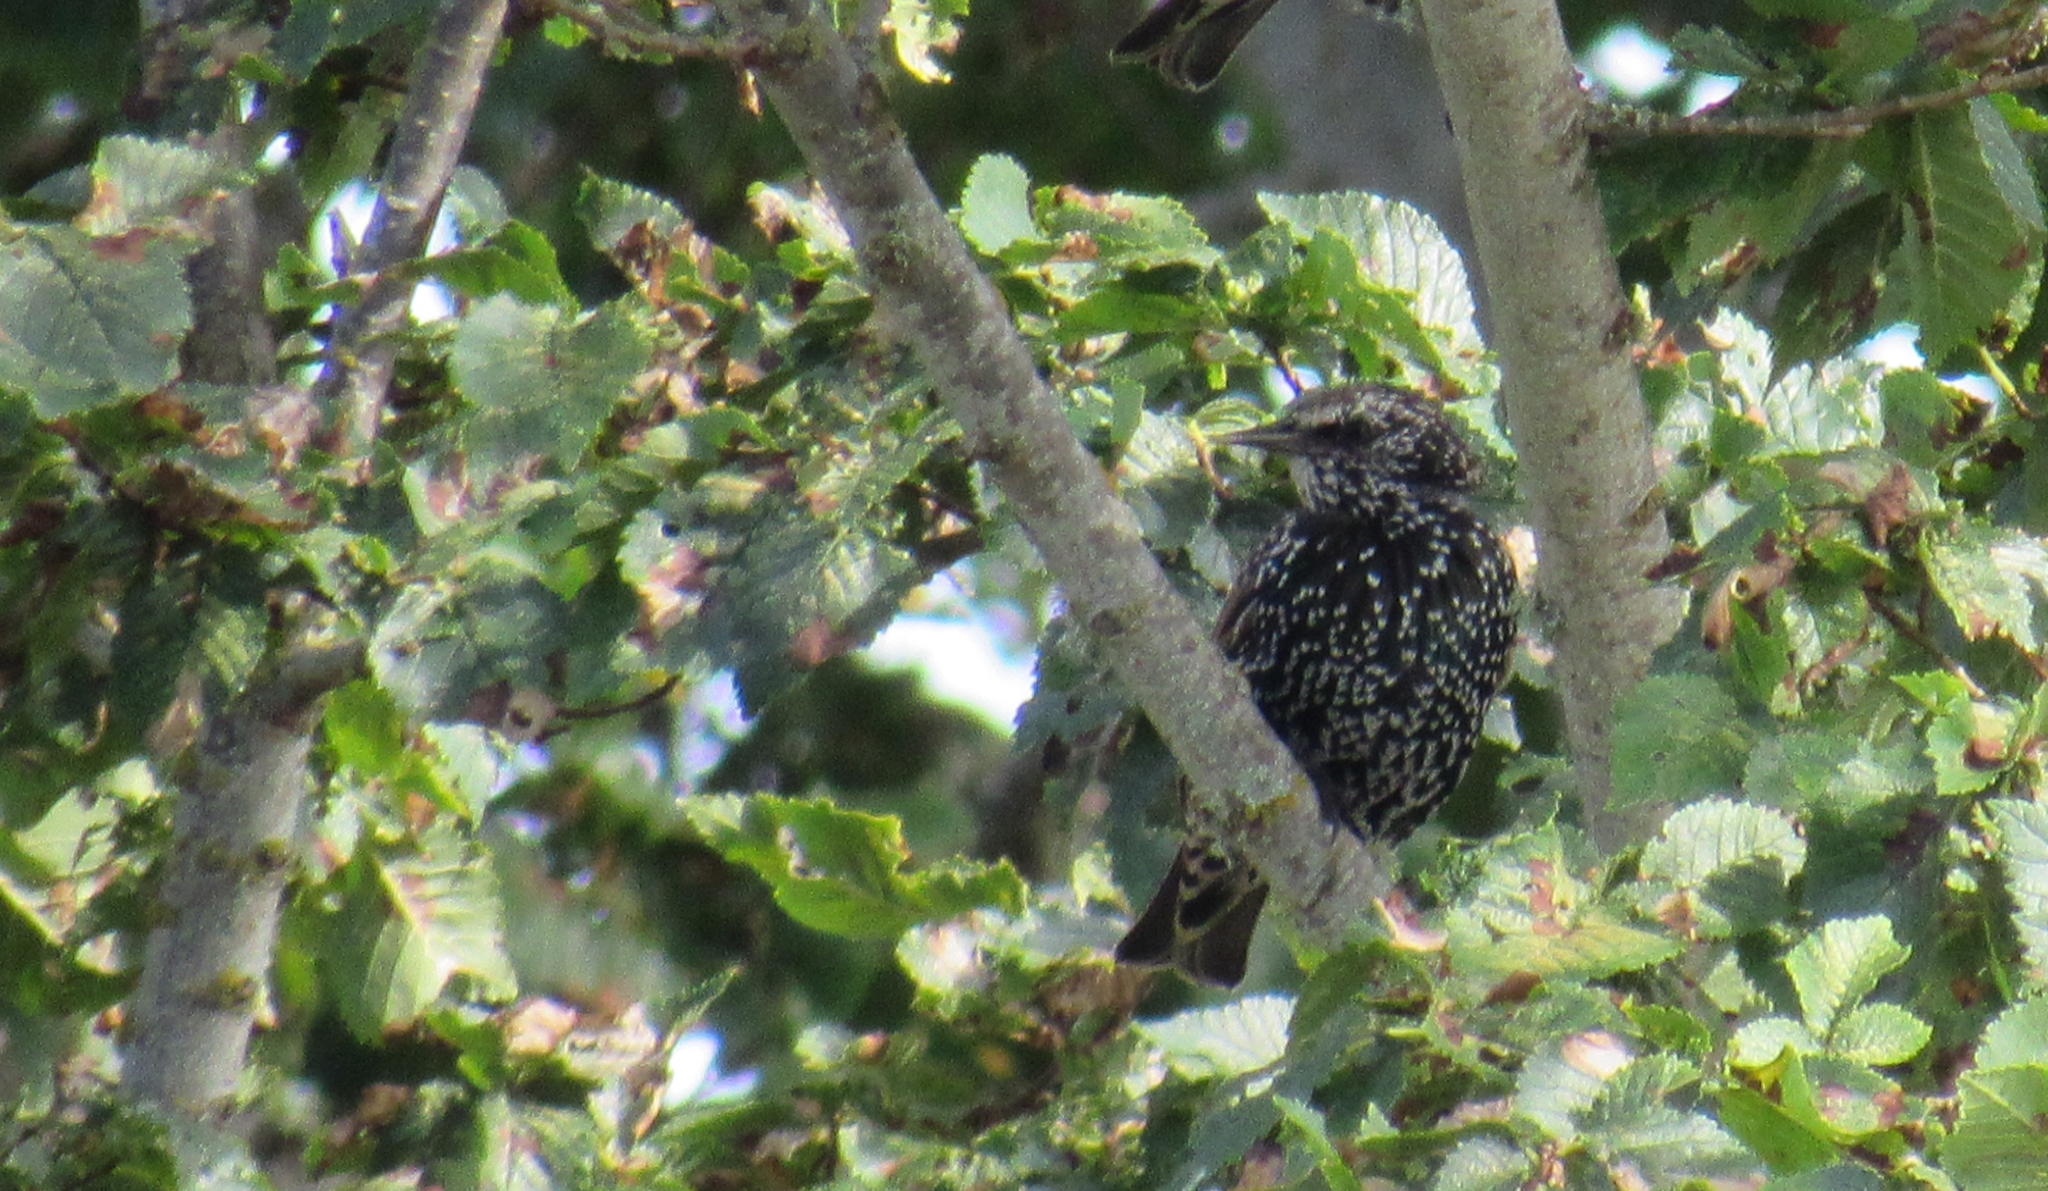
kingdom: Animalia
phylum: Chordata
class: Aves
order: Passeriformes
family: Sturnidae
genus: Sturnus
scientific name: Sturnus vulgaris
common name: Common starling
